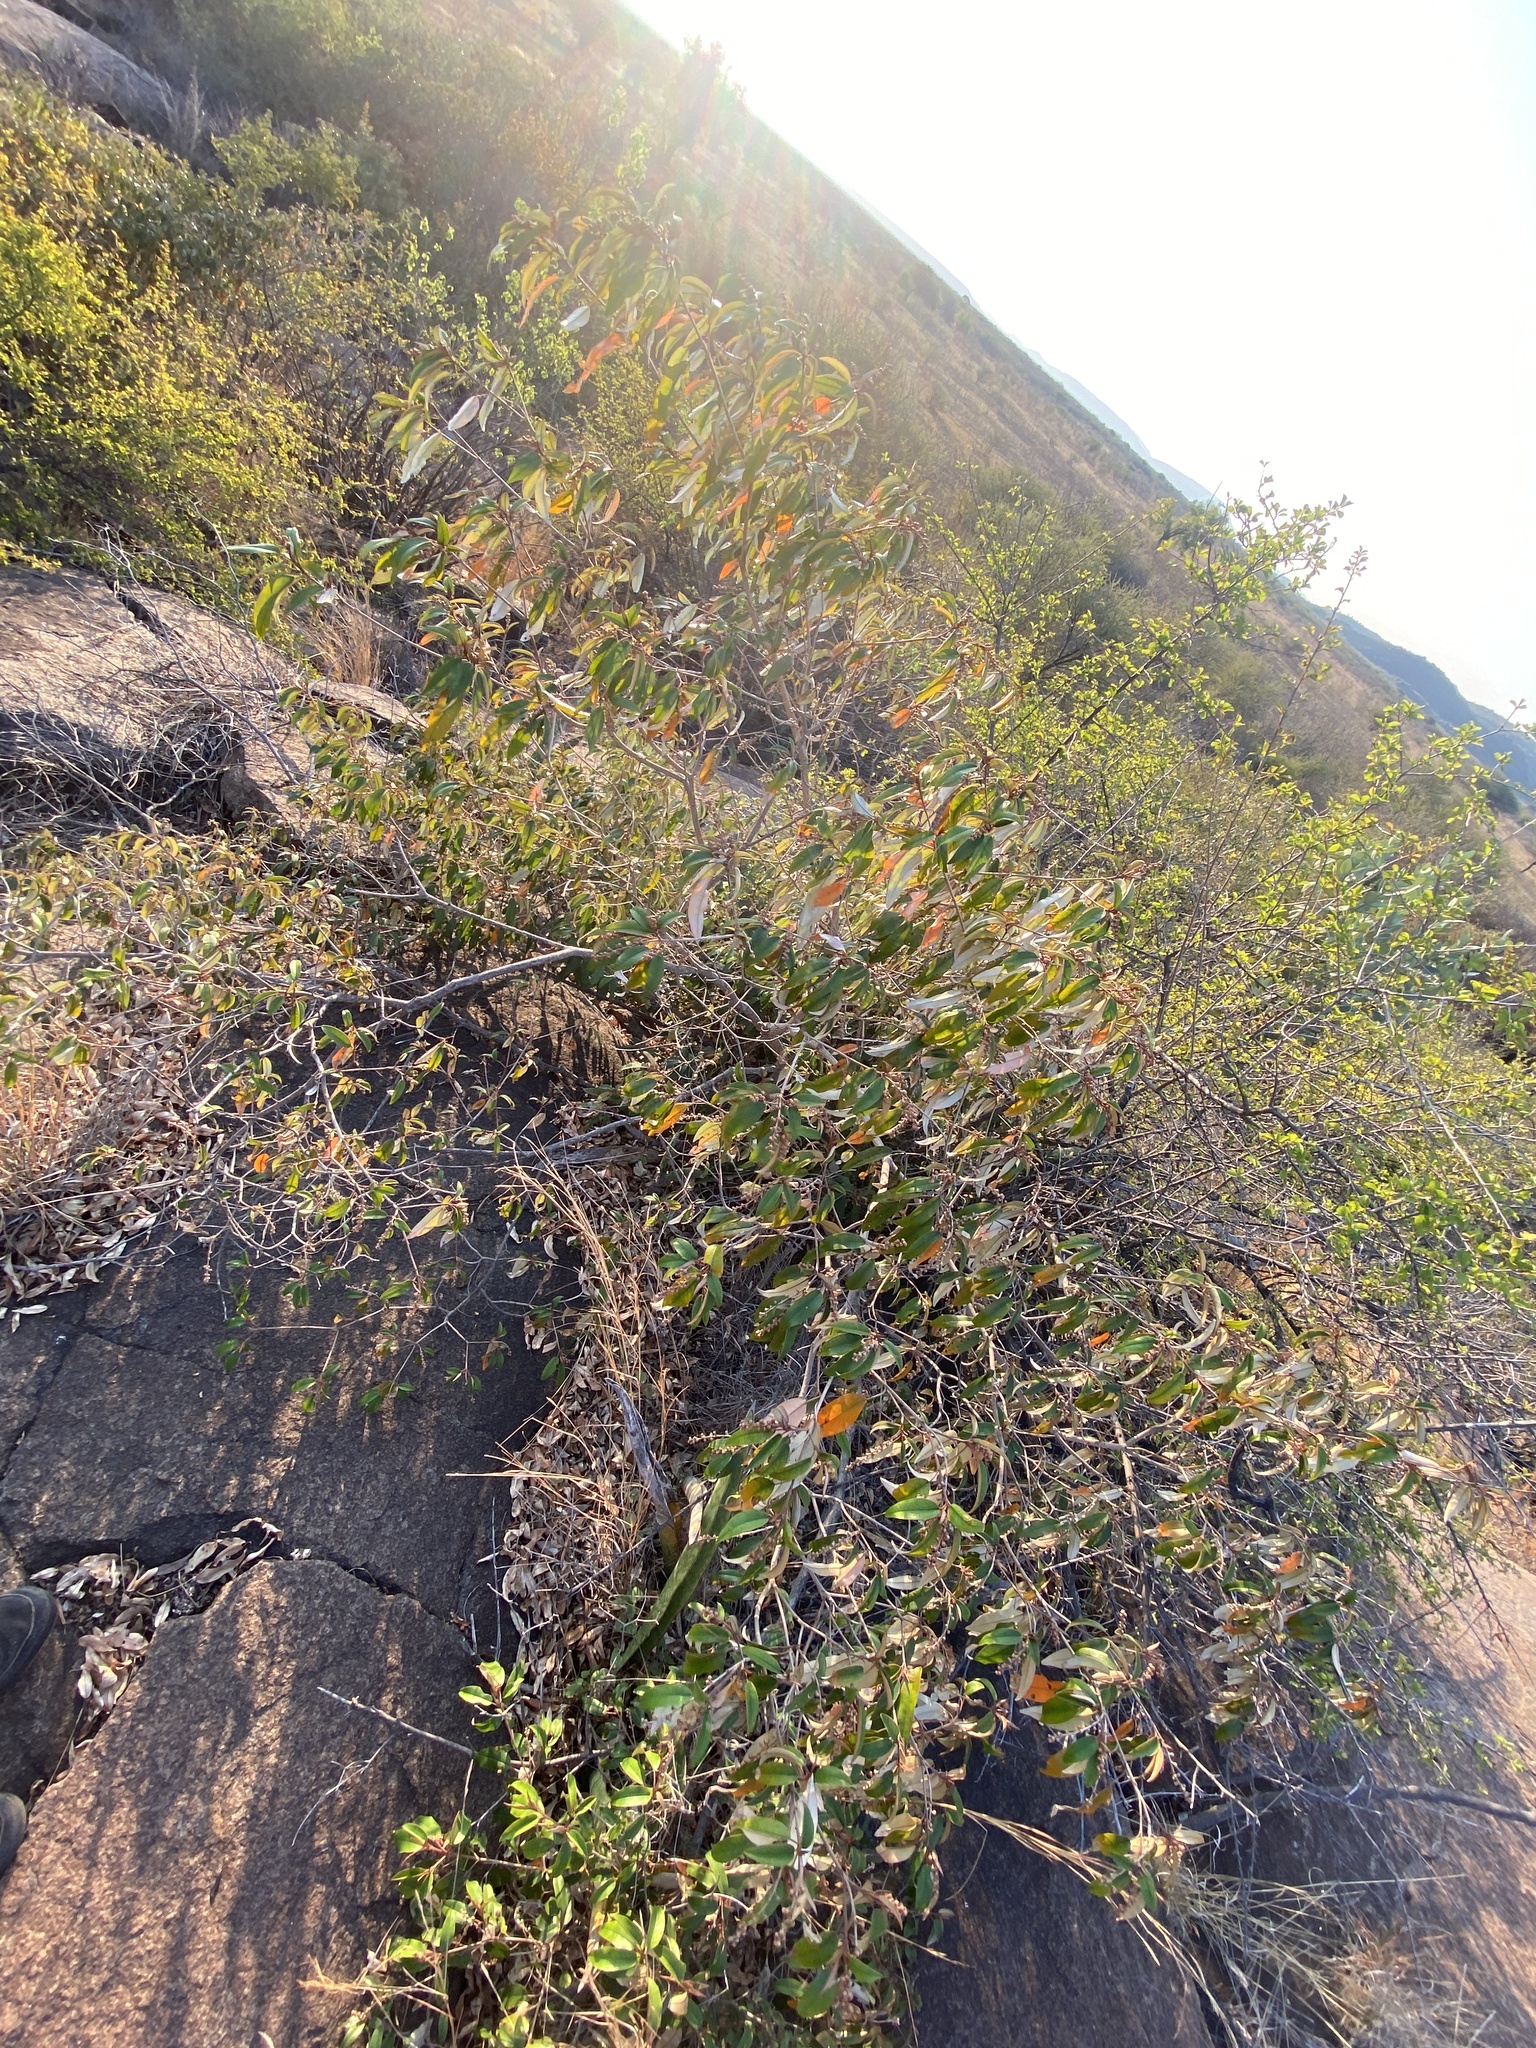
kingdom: Plantae
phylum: Tracheophyta
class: Magnoliopsida
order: Malpighiales
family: Euphorbiaceae
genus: Croton
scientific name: Croton gratissimus
